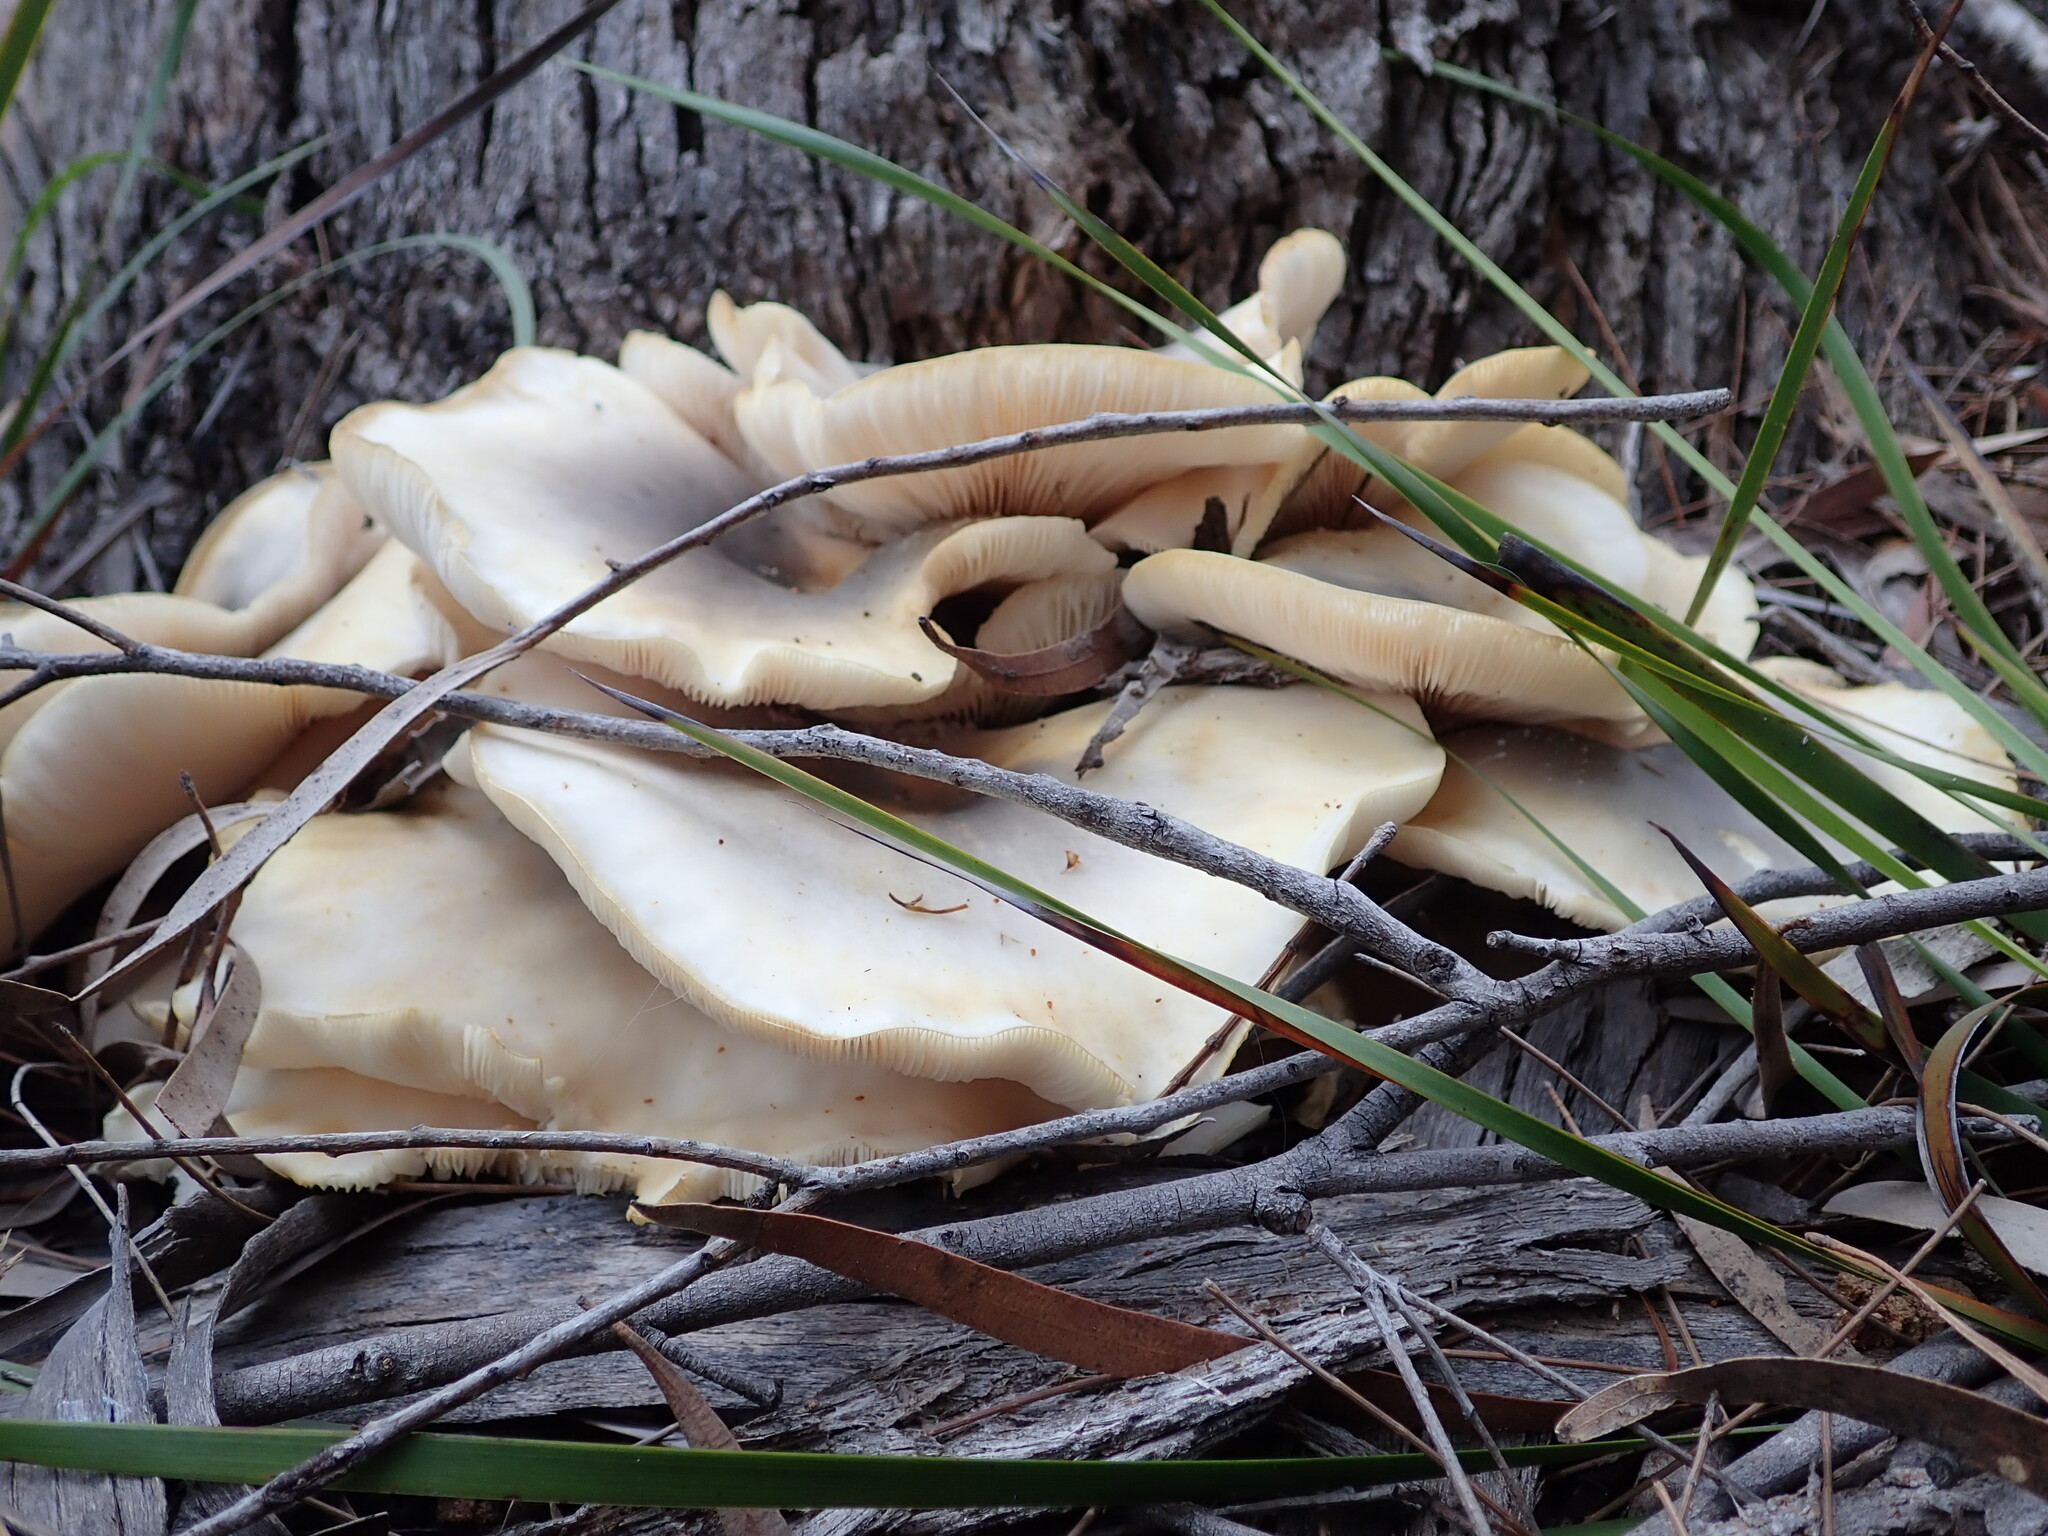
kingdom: Fungi
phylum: Basidiomycota
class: Agaricomycetes
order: Agaricales
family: Omphalotaceae
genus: Omphalotus
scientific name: Omphalotus nidiformis
